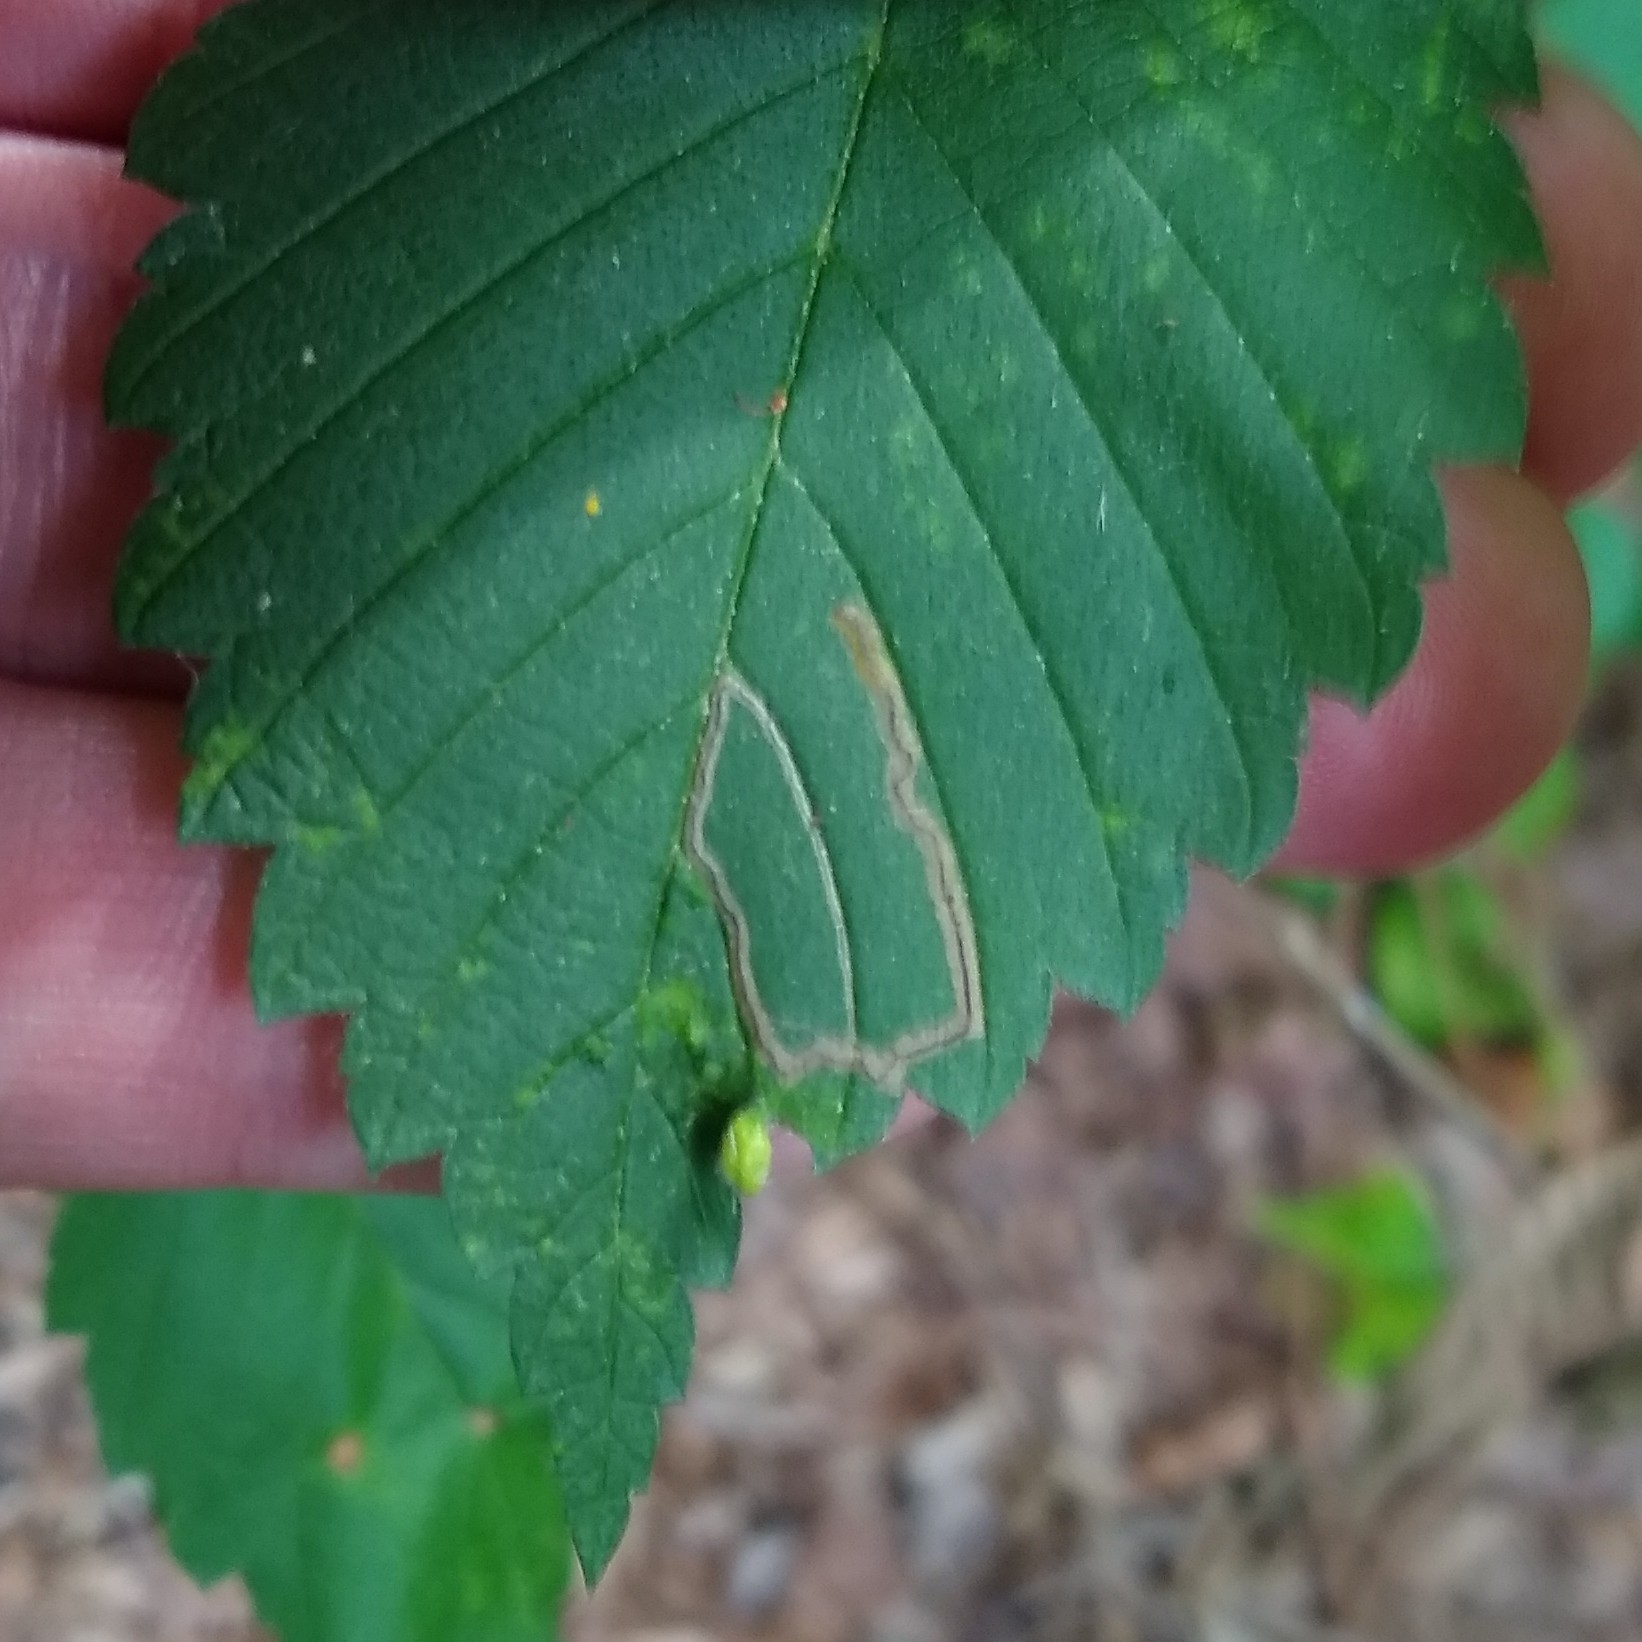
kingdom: Animalia
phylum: Arthropoda
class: Insecta
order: Lepidoptera
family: Nepticulidae
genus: Stigmella
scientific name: Stigmella apicialbella
